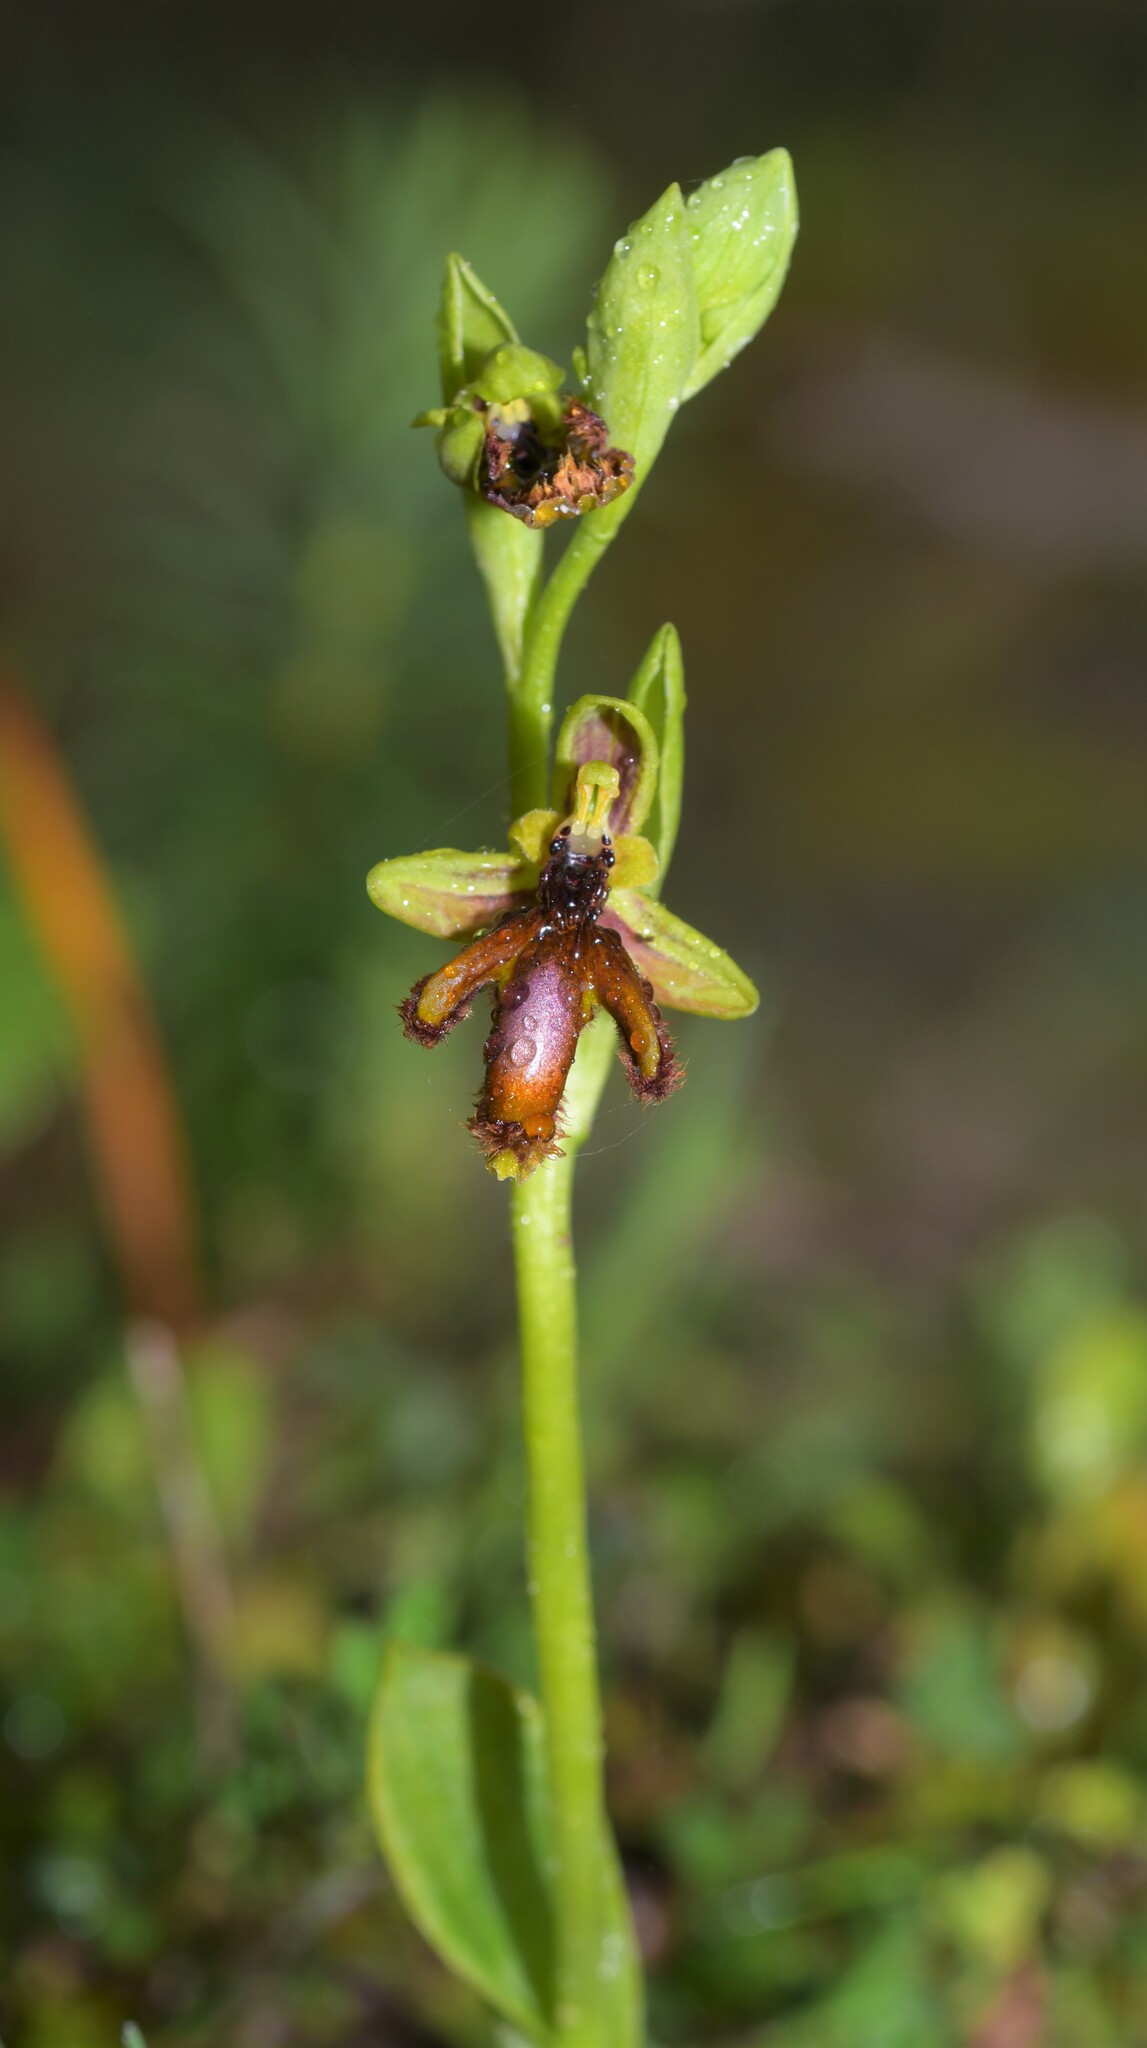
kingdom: Plantae
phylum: Tracheophyta
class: Liliopsida
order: Asparagales
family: Orchidaceae
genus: Ophrys
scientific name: Ophrys speculum
